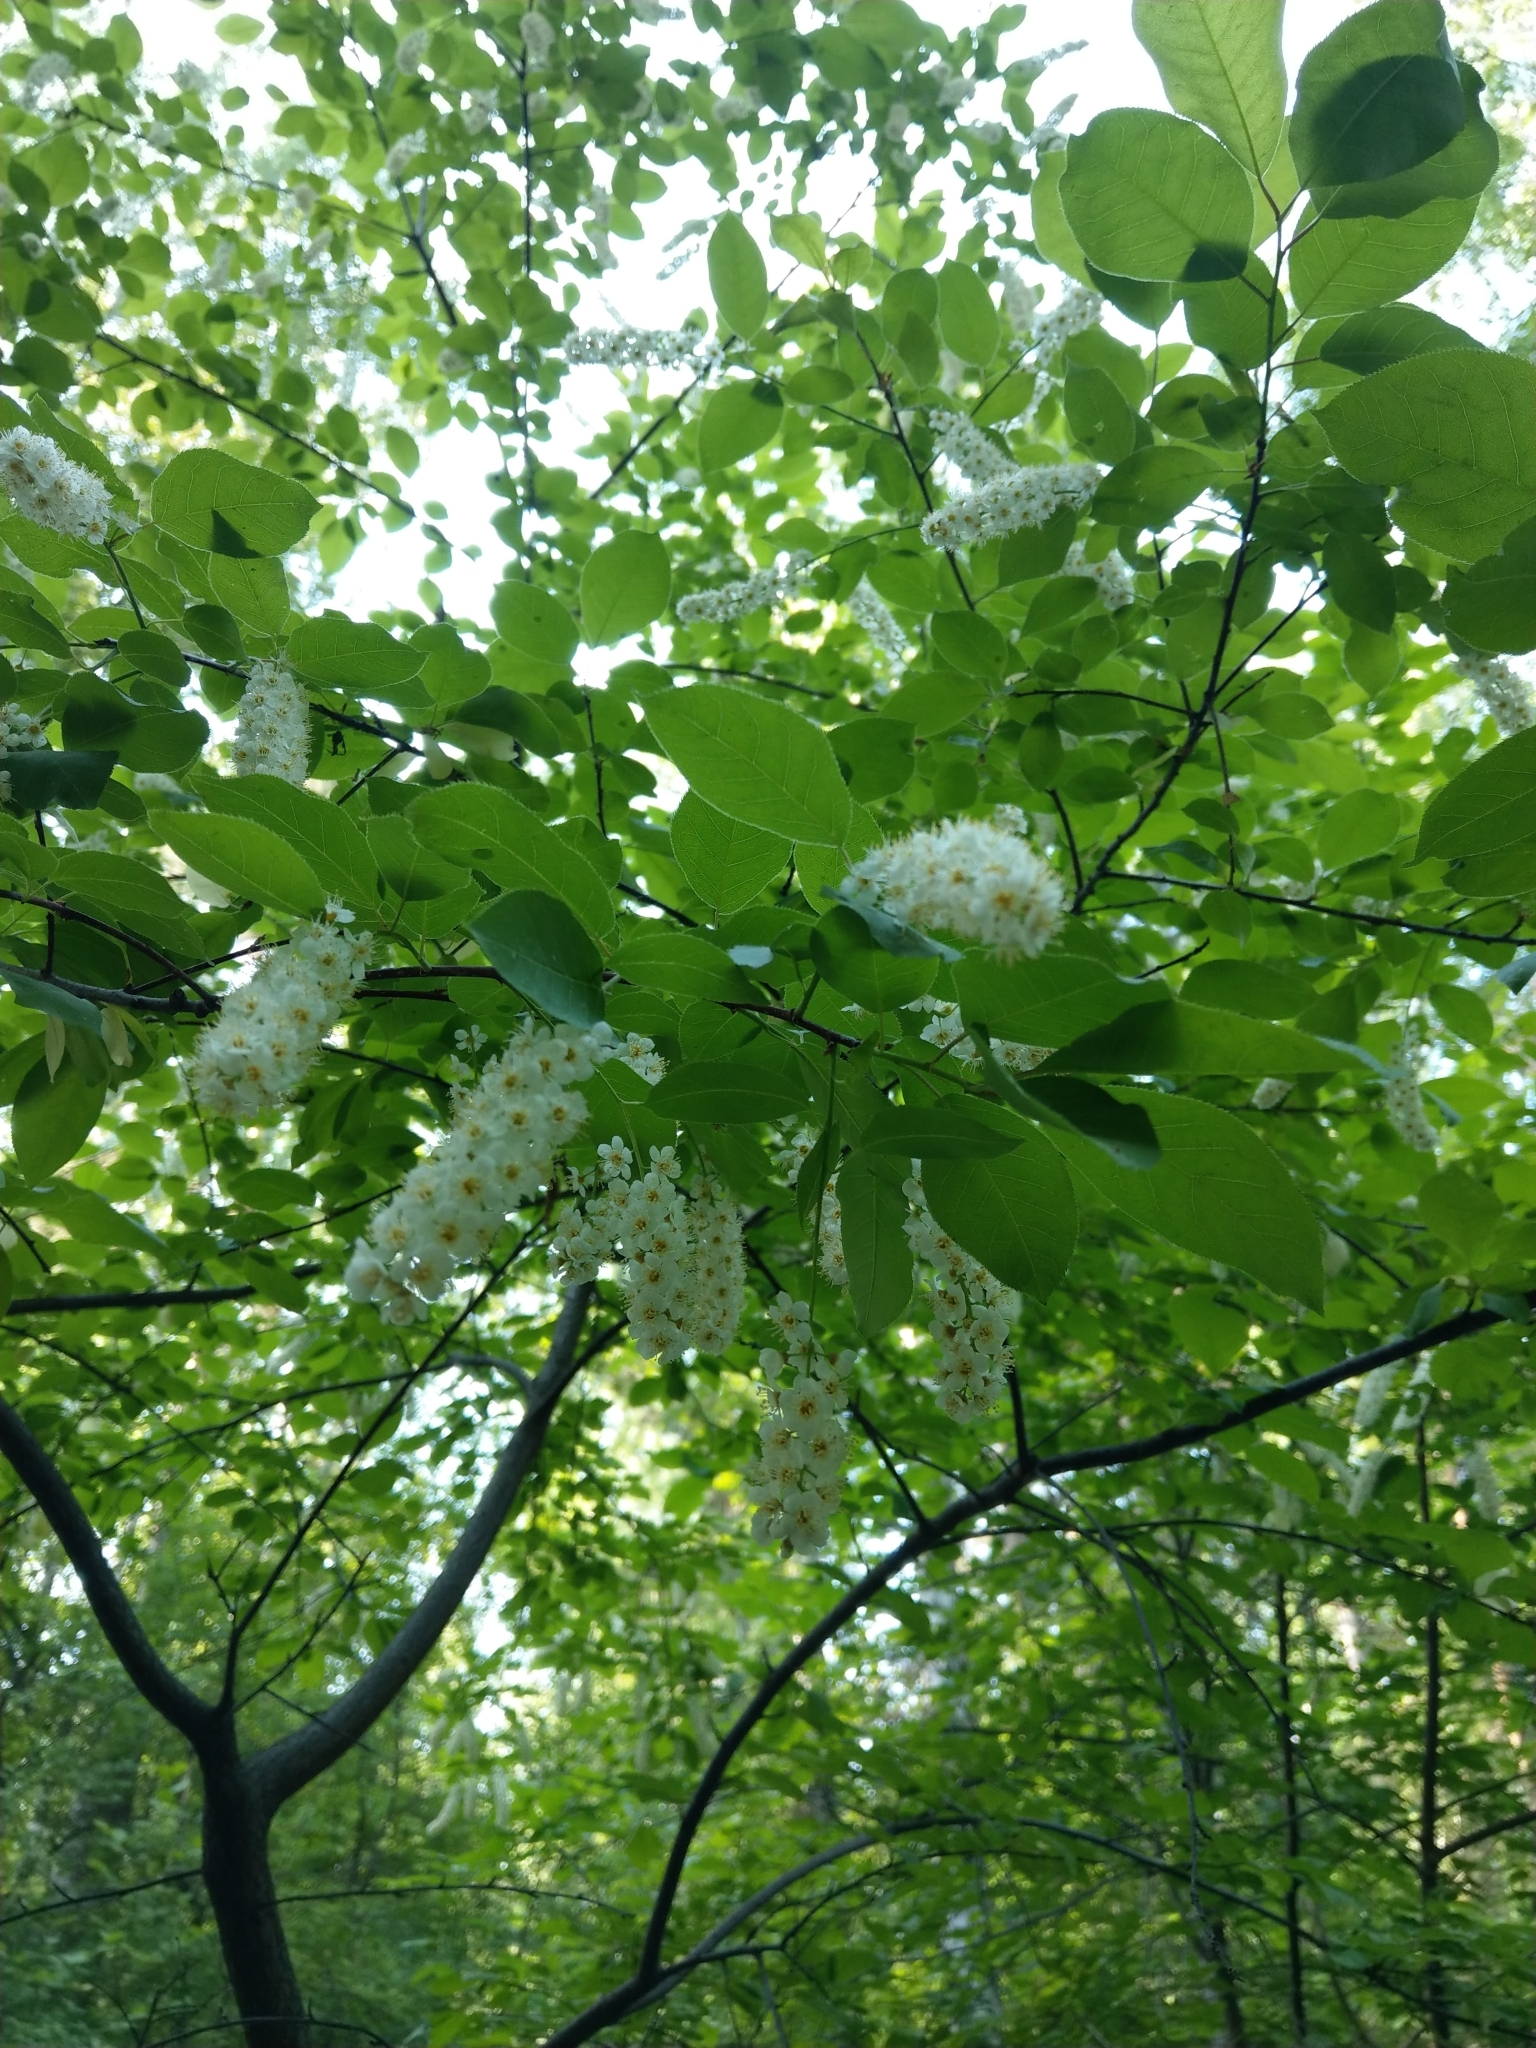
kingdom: Plantae
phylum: Tracheophyta
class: Magnoliopsida
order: Rosales
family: Rosaceae
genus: Prunus
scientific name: Prunus padus
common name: Bird cherry
